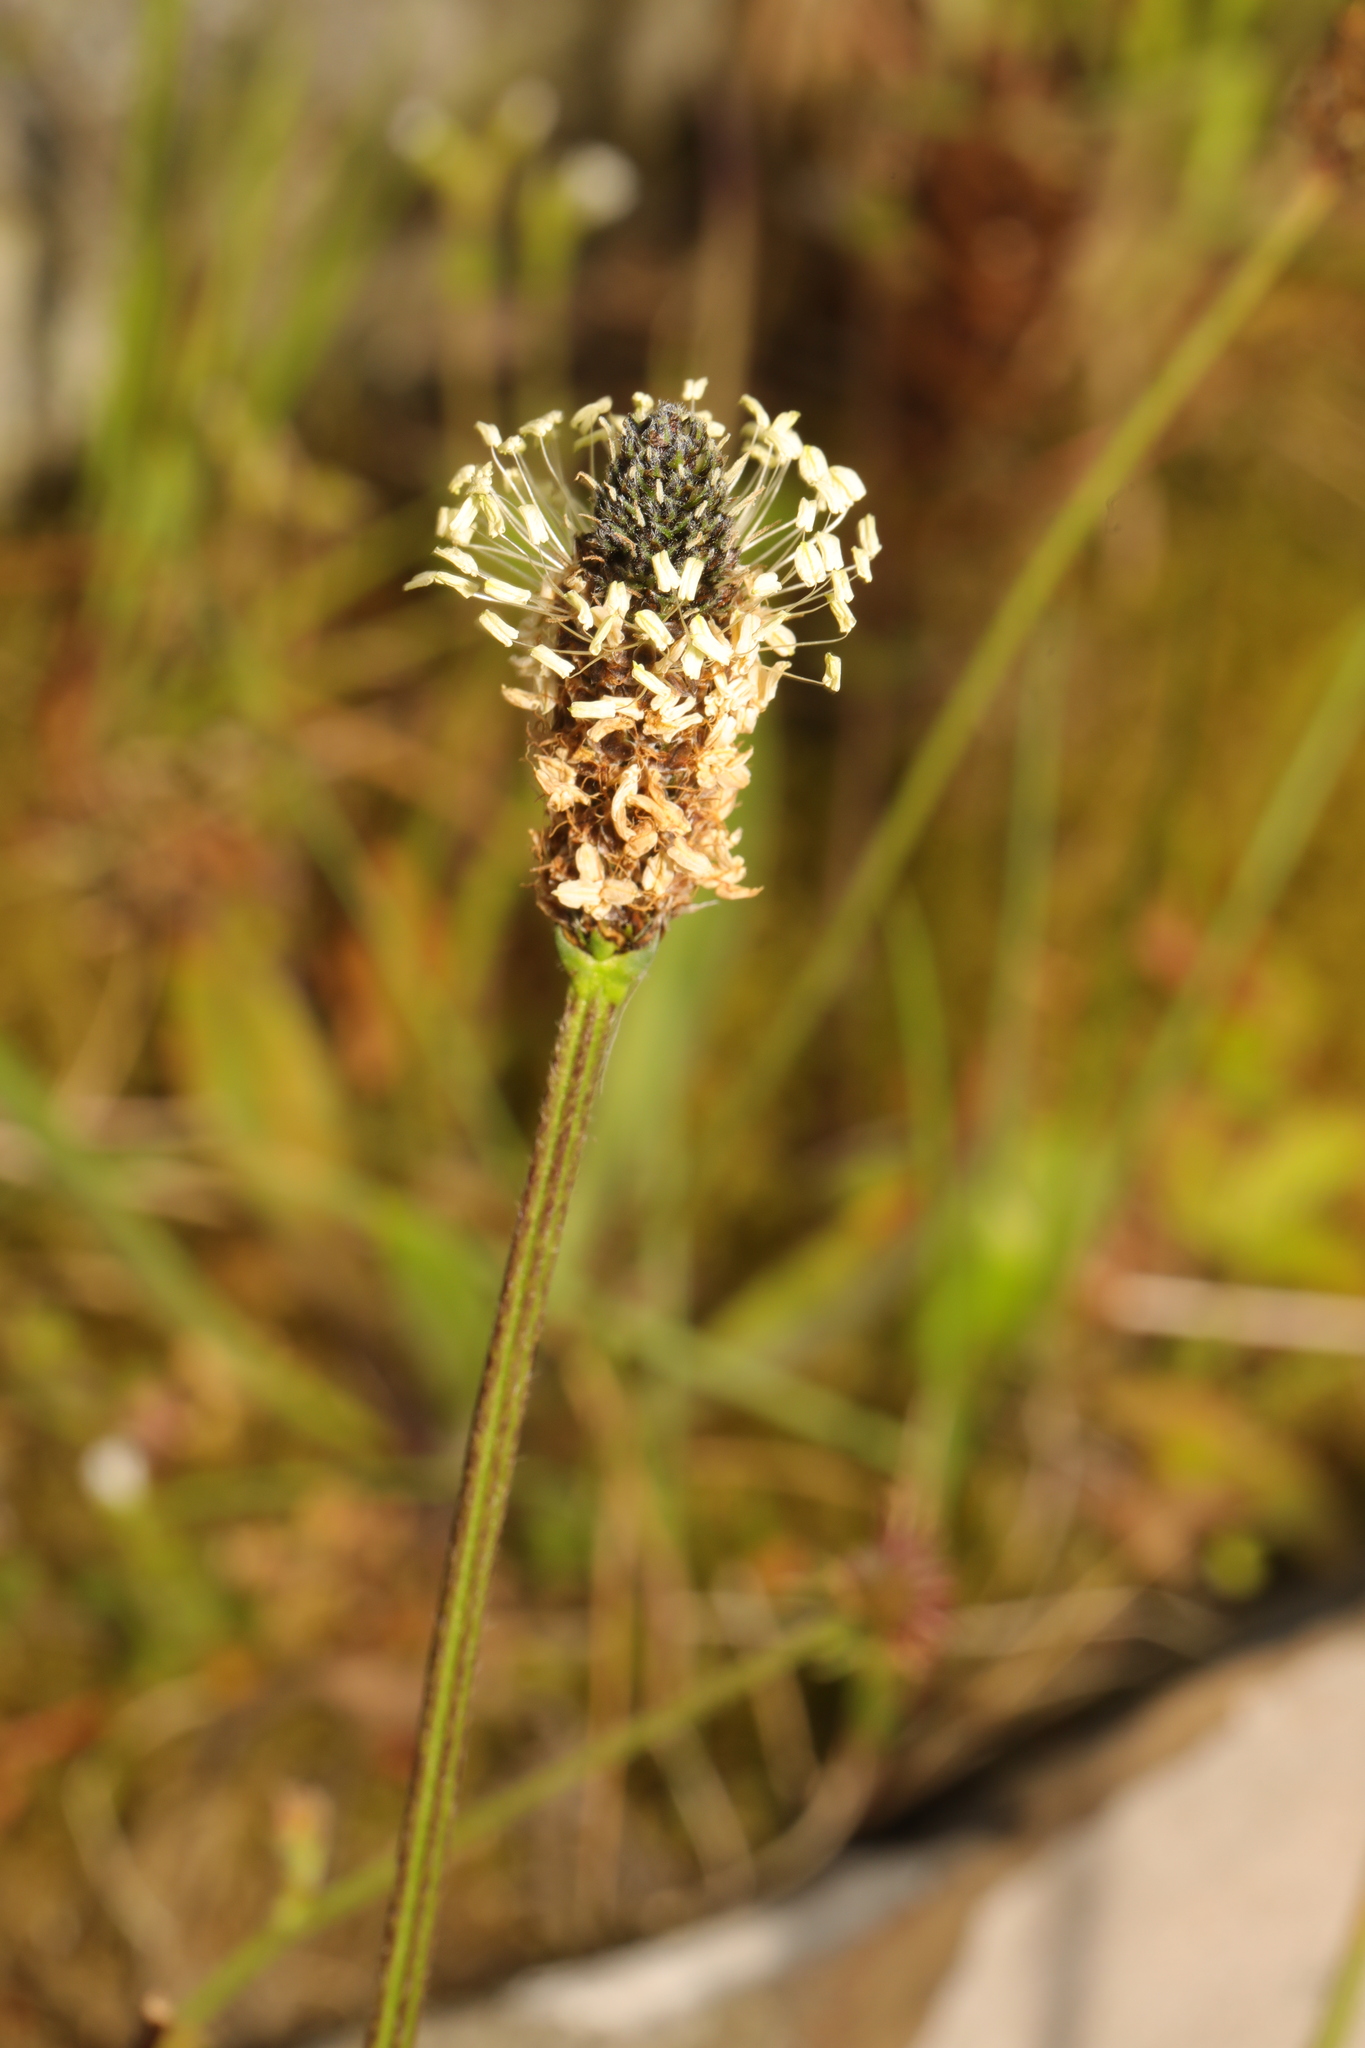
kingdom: Plantae
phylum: Tracheophyta
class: Magnoliopsida
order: Lamiales
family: Plantaginaceae
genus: Plantago
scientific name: Plantago lanceolata
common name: Ribwort plantain
